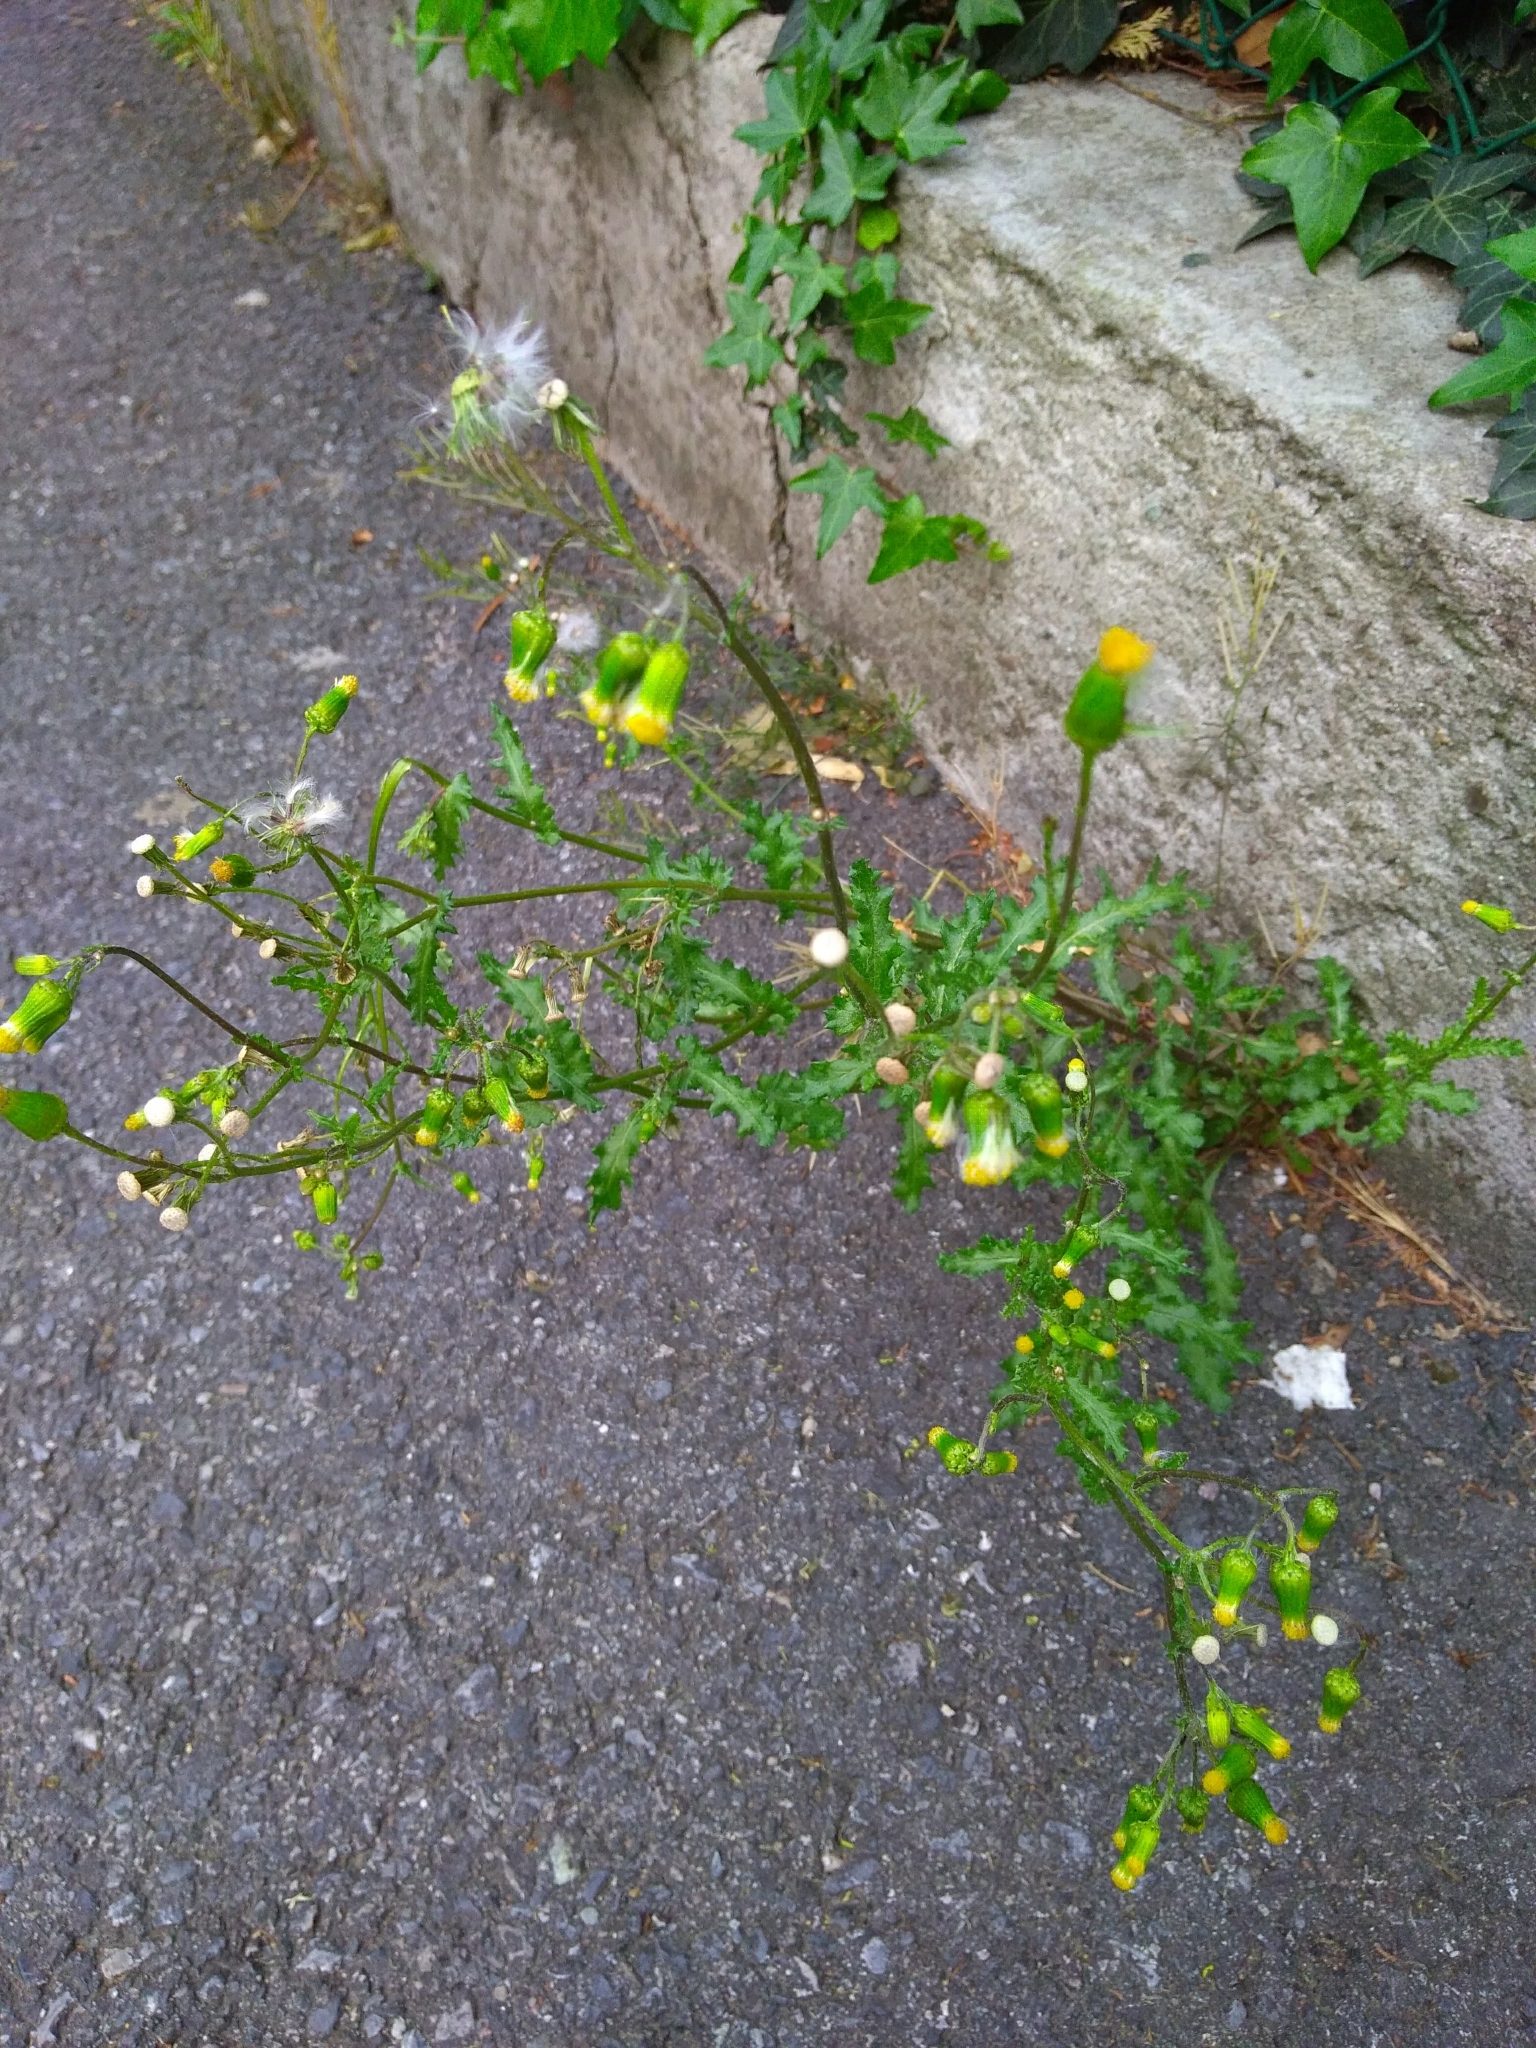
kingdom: Plantae
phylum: Tracheophyta
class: Magnoliopsida
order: Asterales
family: Asteraceae
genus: Senecio
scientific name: Senecio vulgaris
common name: Old-man-in-the-spring
